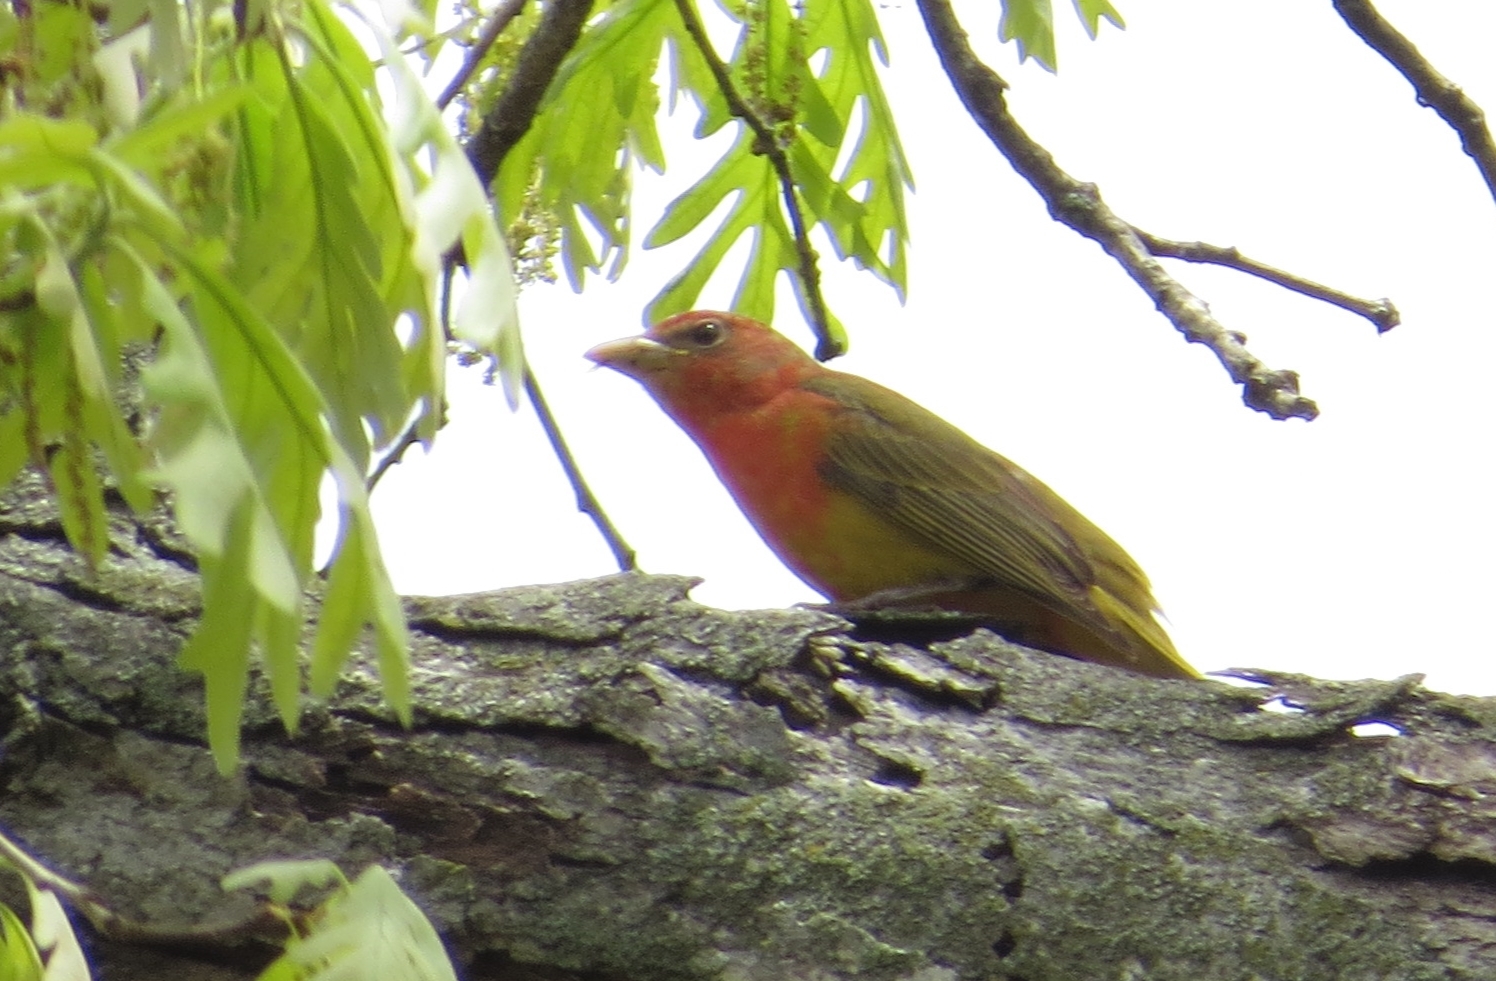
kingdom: Animalia
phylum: Chordata
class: Aves
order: Passeriformes
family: Cardinalidae
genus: Piranga
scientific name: Piranga rubra
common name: Summer tanager
